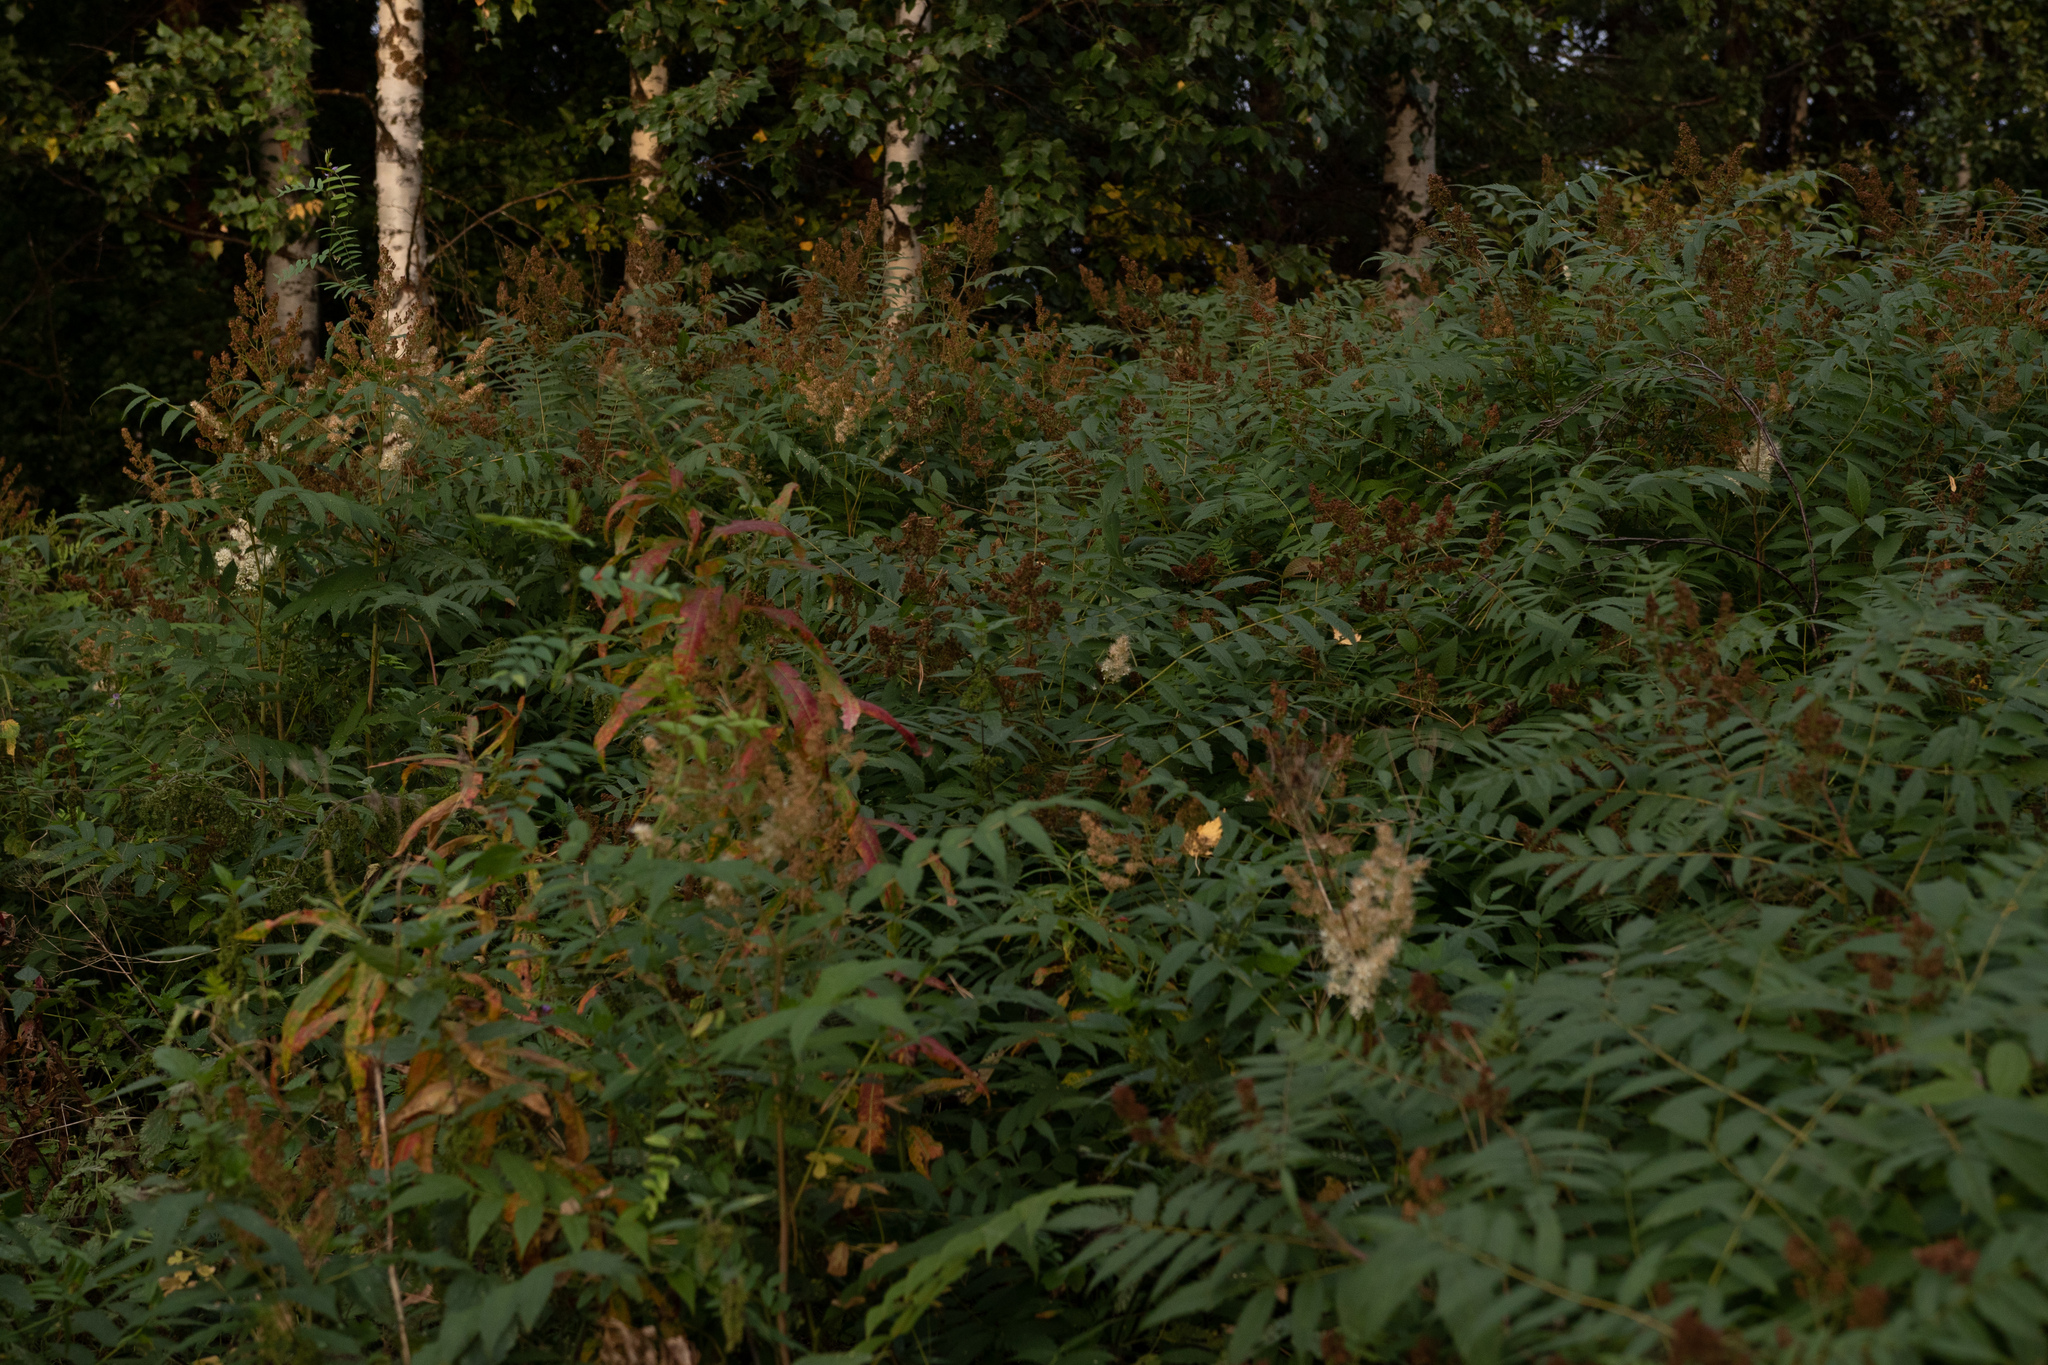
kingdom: Plantae
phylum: Tracheophyta
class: Magnoliopsida
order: Rosales
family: Rosaceae
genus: Sorbaria
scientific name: Sorbaria sorbifolia
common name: False spiraea
